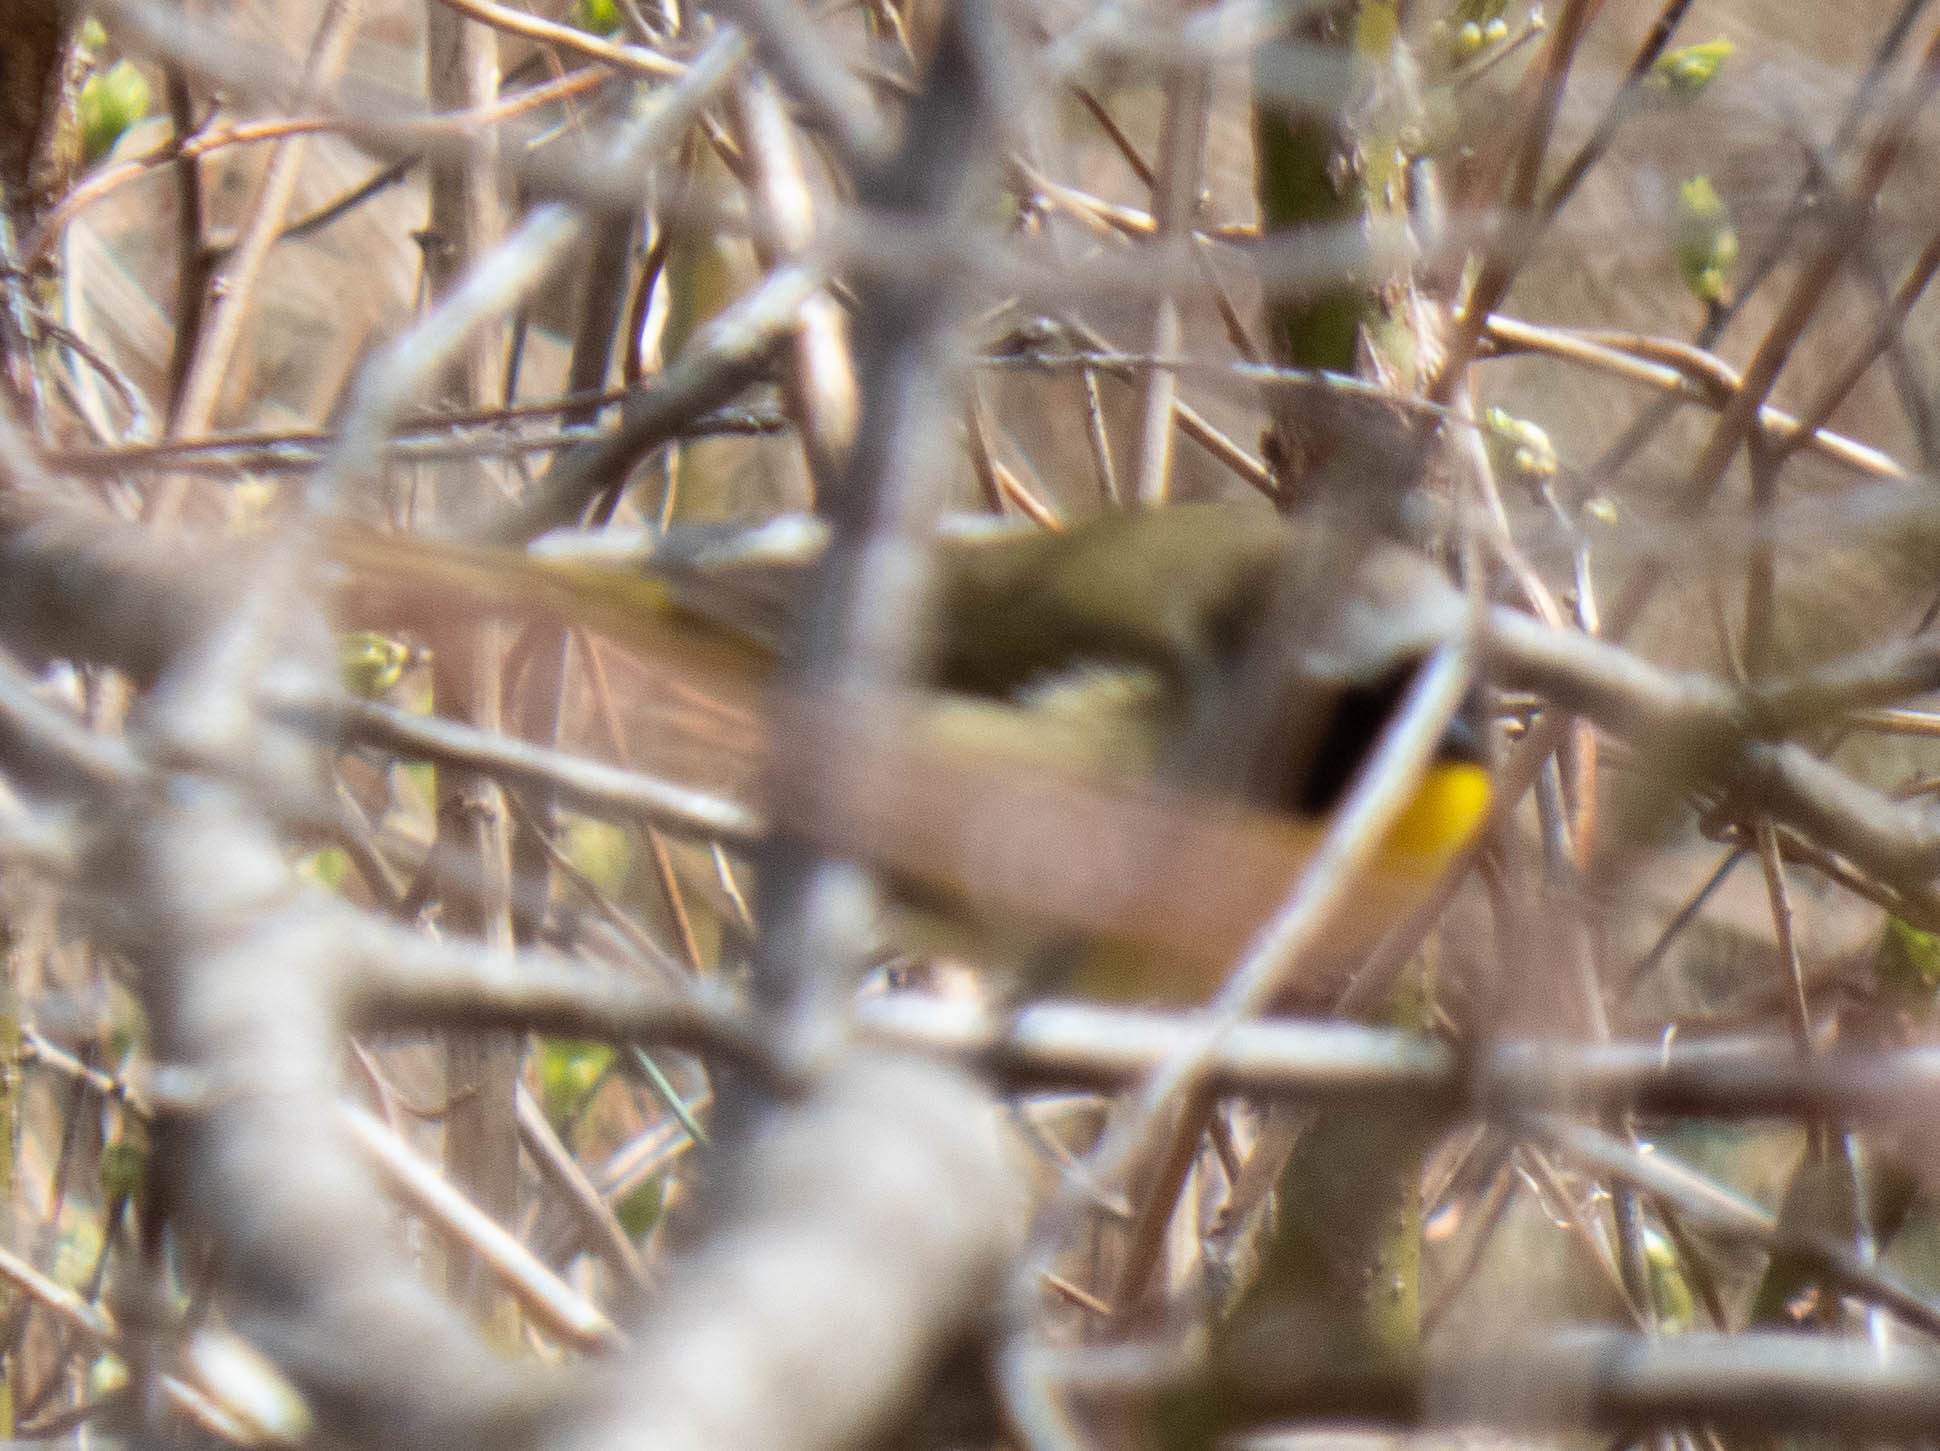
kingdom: Animalia
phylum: Chordata
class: Aves
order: Passeriformes
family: Parulidae
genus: Geothlypis
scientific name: Geothlypis trichas
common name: Common yellowthroat
